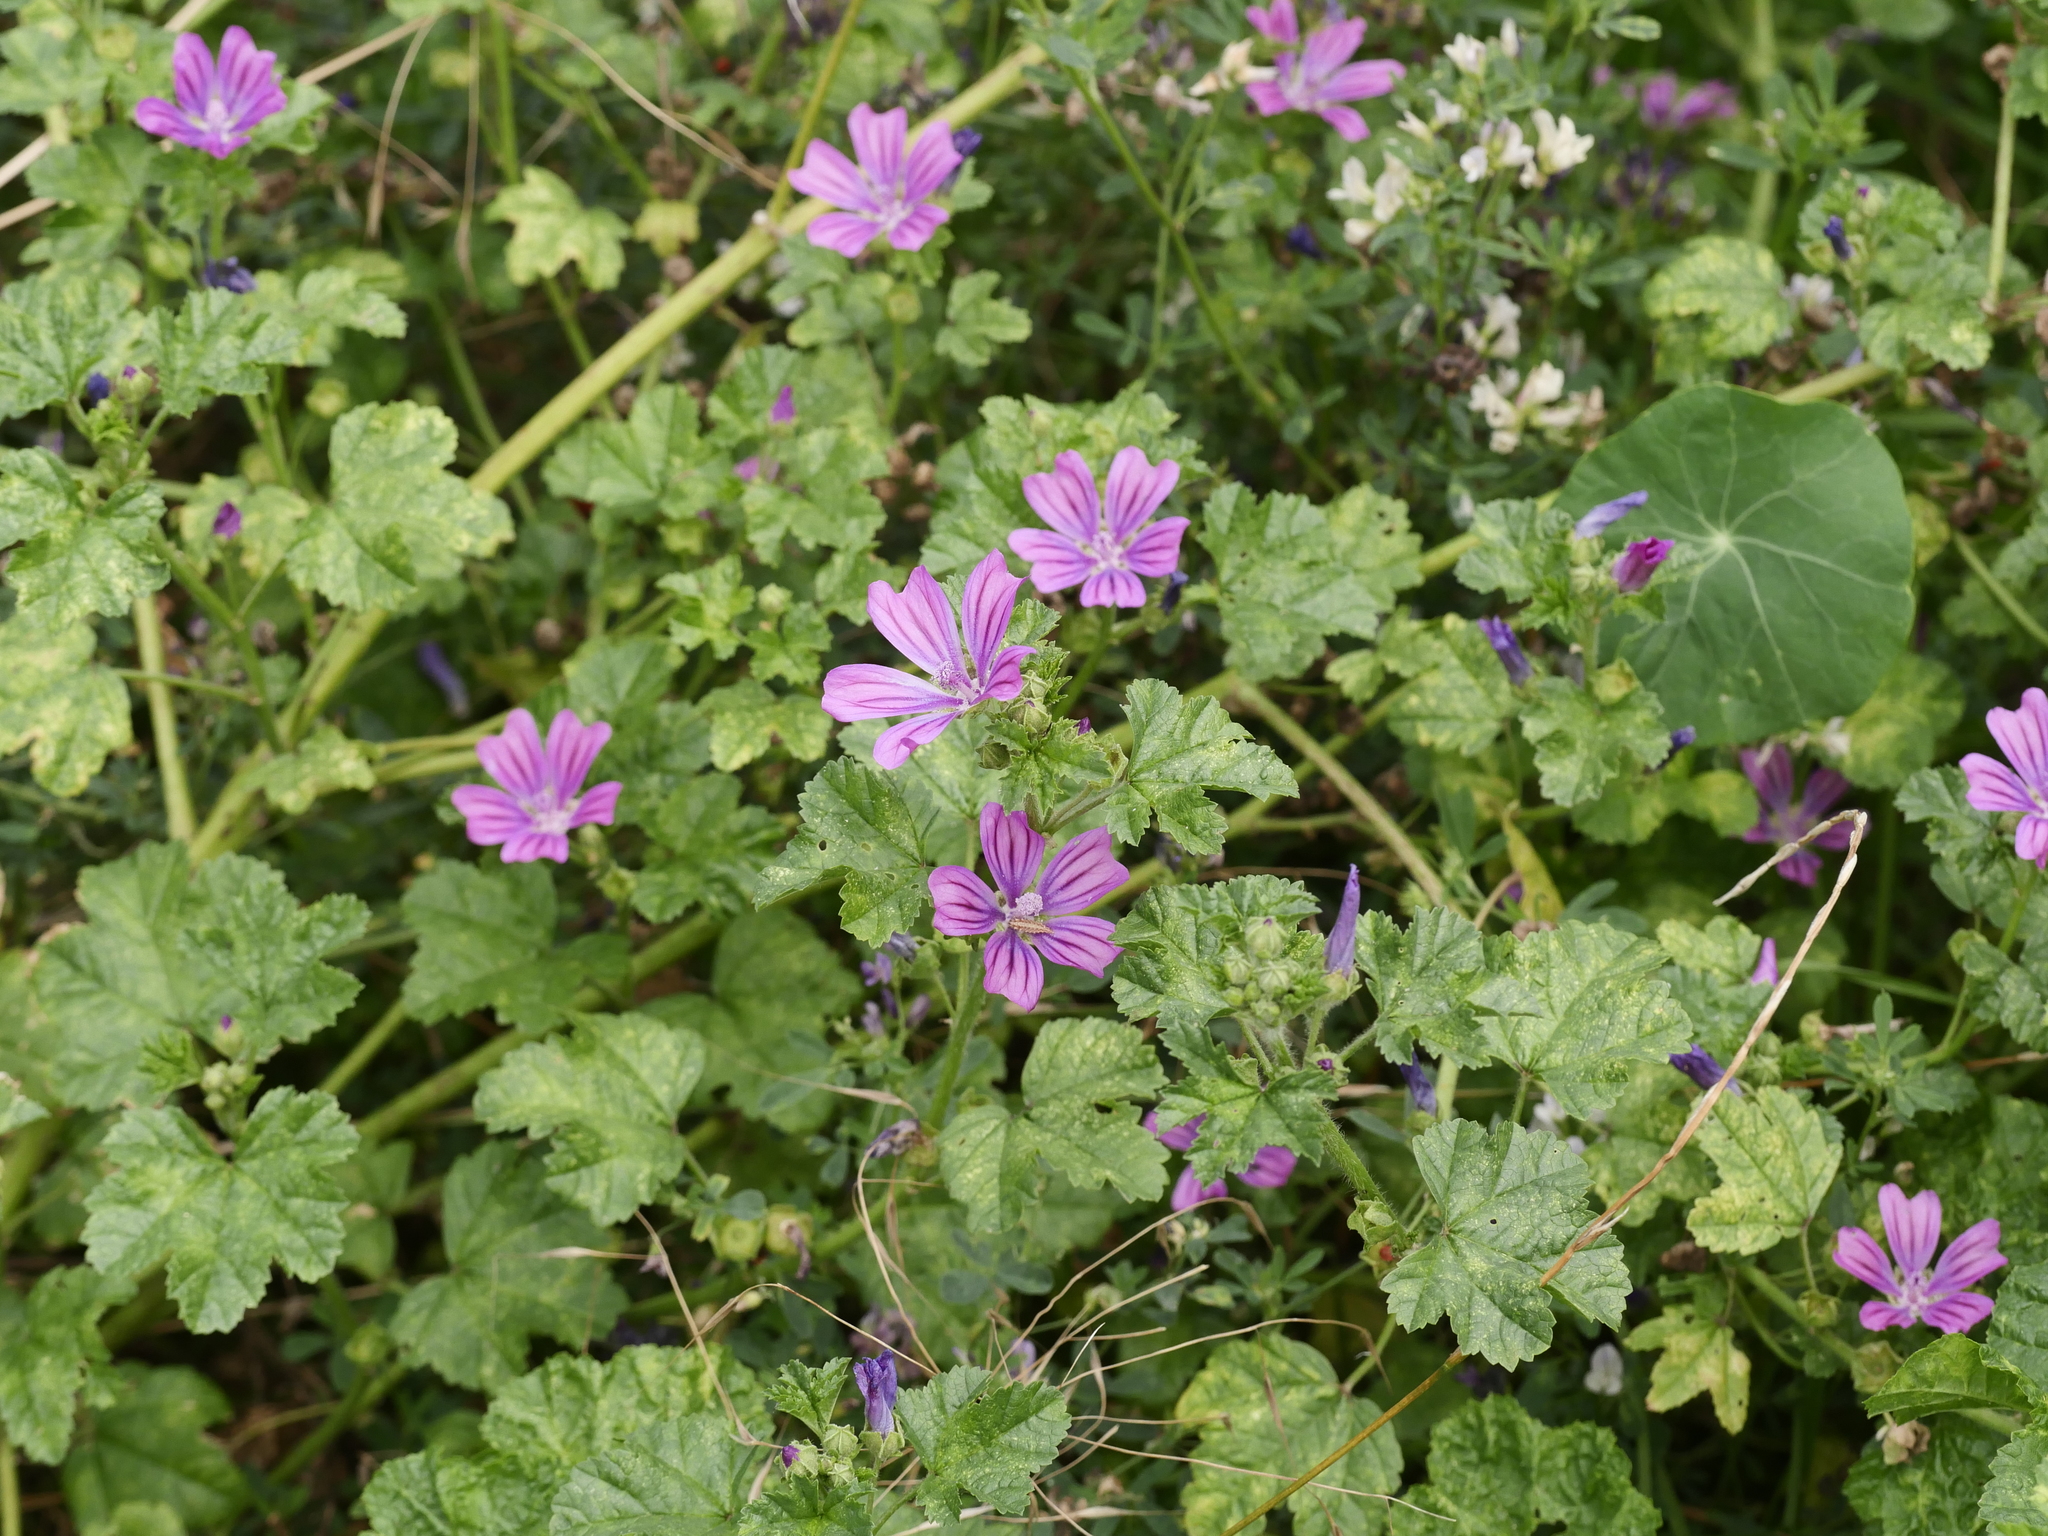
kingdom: Plantae
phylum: Tracheophyta
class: Magnoliopsida
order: Malvales
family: Malvaceae
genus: Malva
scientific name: Malva sylvestris
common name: Common mallow
